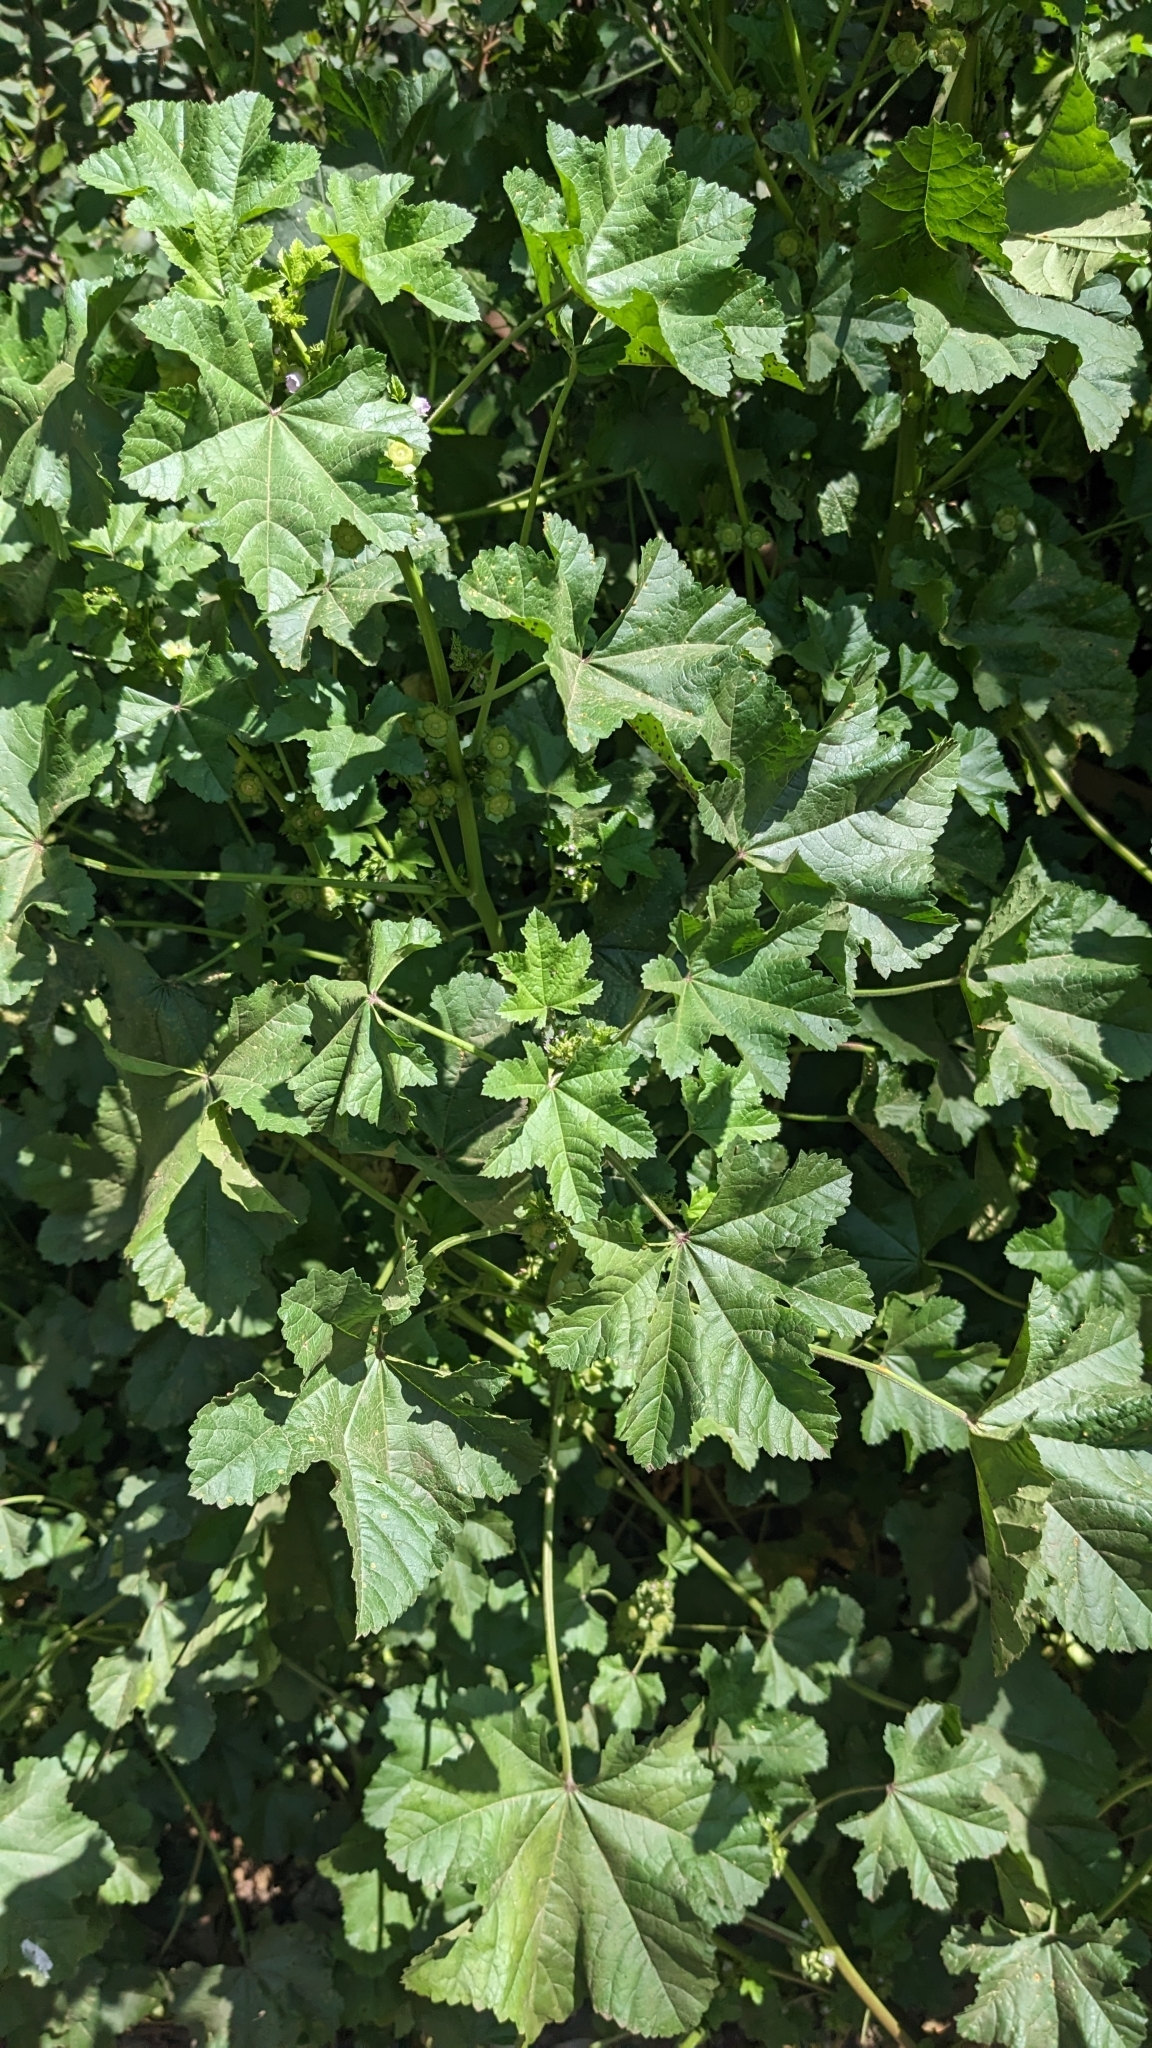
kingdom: Plantae
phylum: Tracheophyta
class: Magnoliopsida
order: Malvales
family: Malvaceae
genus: Malva
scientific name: Malva parviflora
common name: Least mallow
